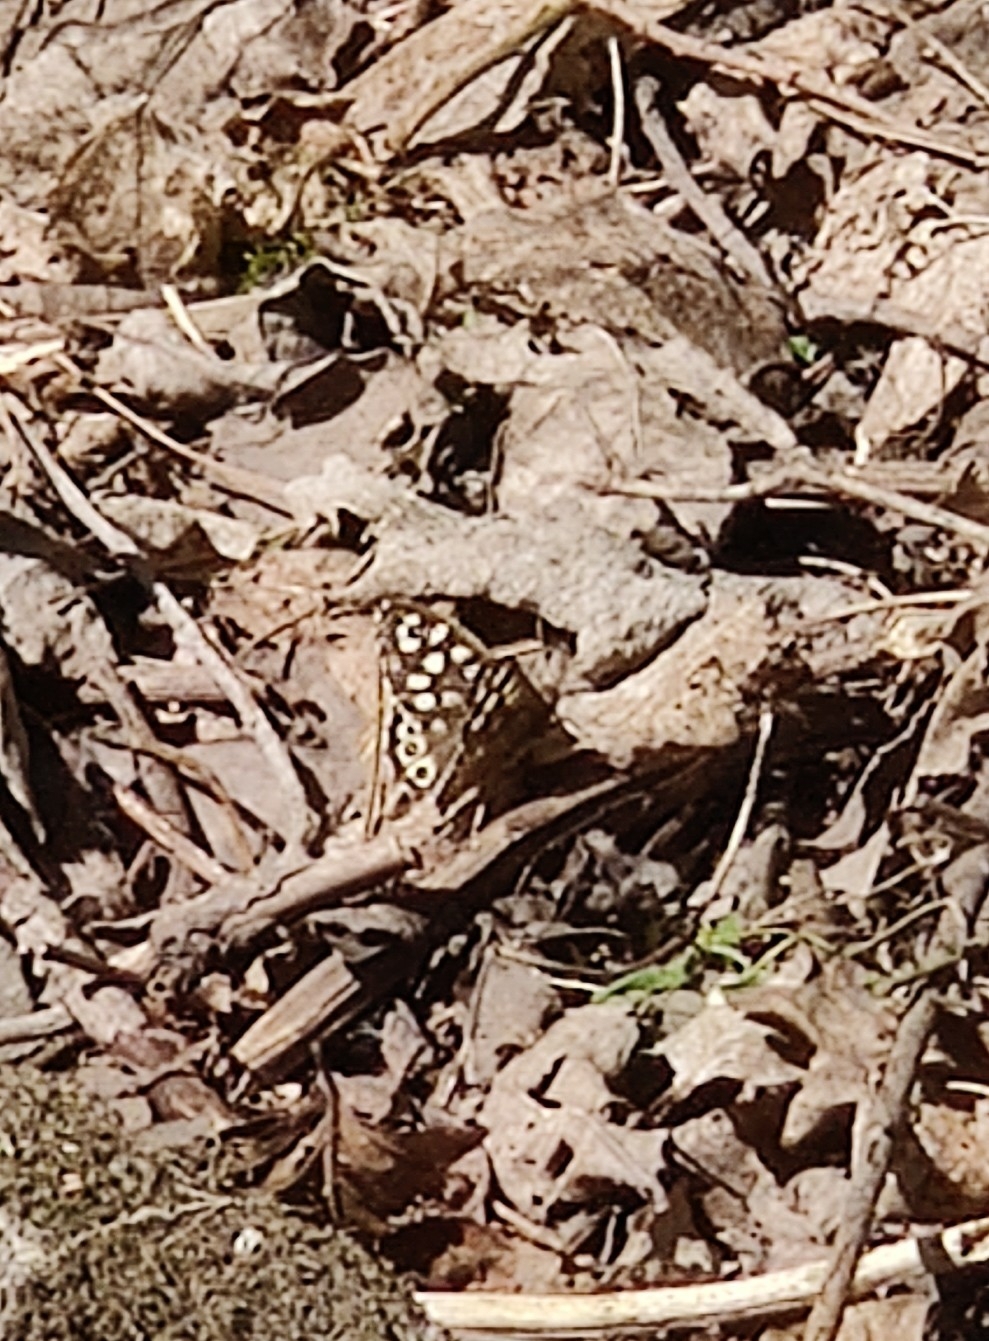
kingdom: Animalia
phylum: Arthropoda
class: Insecta
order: Lepidoptera
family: Nymphalidae
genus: Pararge
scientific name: Pararge aegeria
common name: Speckled wood
